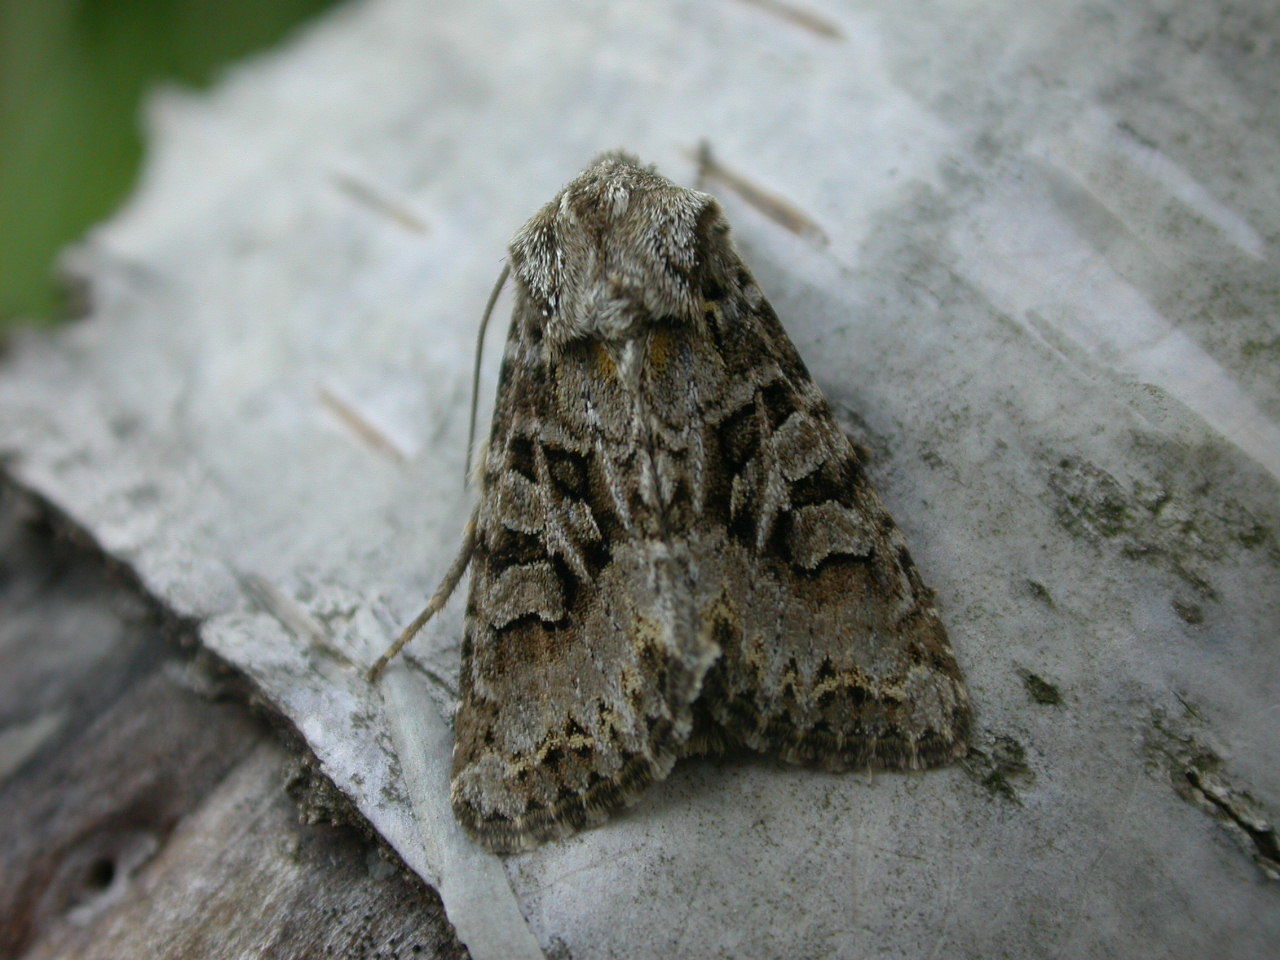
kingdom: Animalia
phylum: Arthropoda
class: Insecta
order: Lepidoptera
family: Noctuidae
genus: Hada
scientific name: Hada plebeja
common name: Shears
